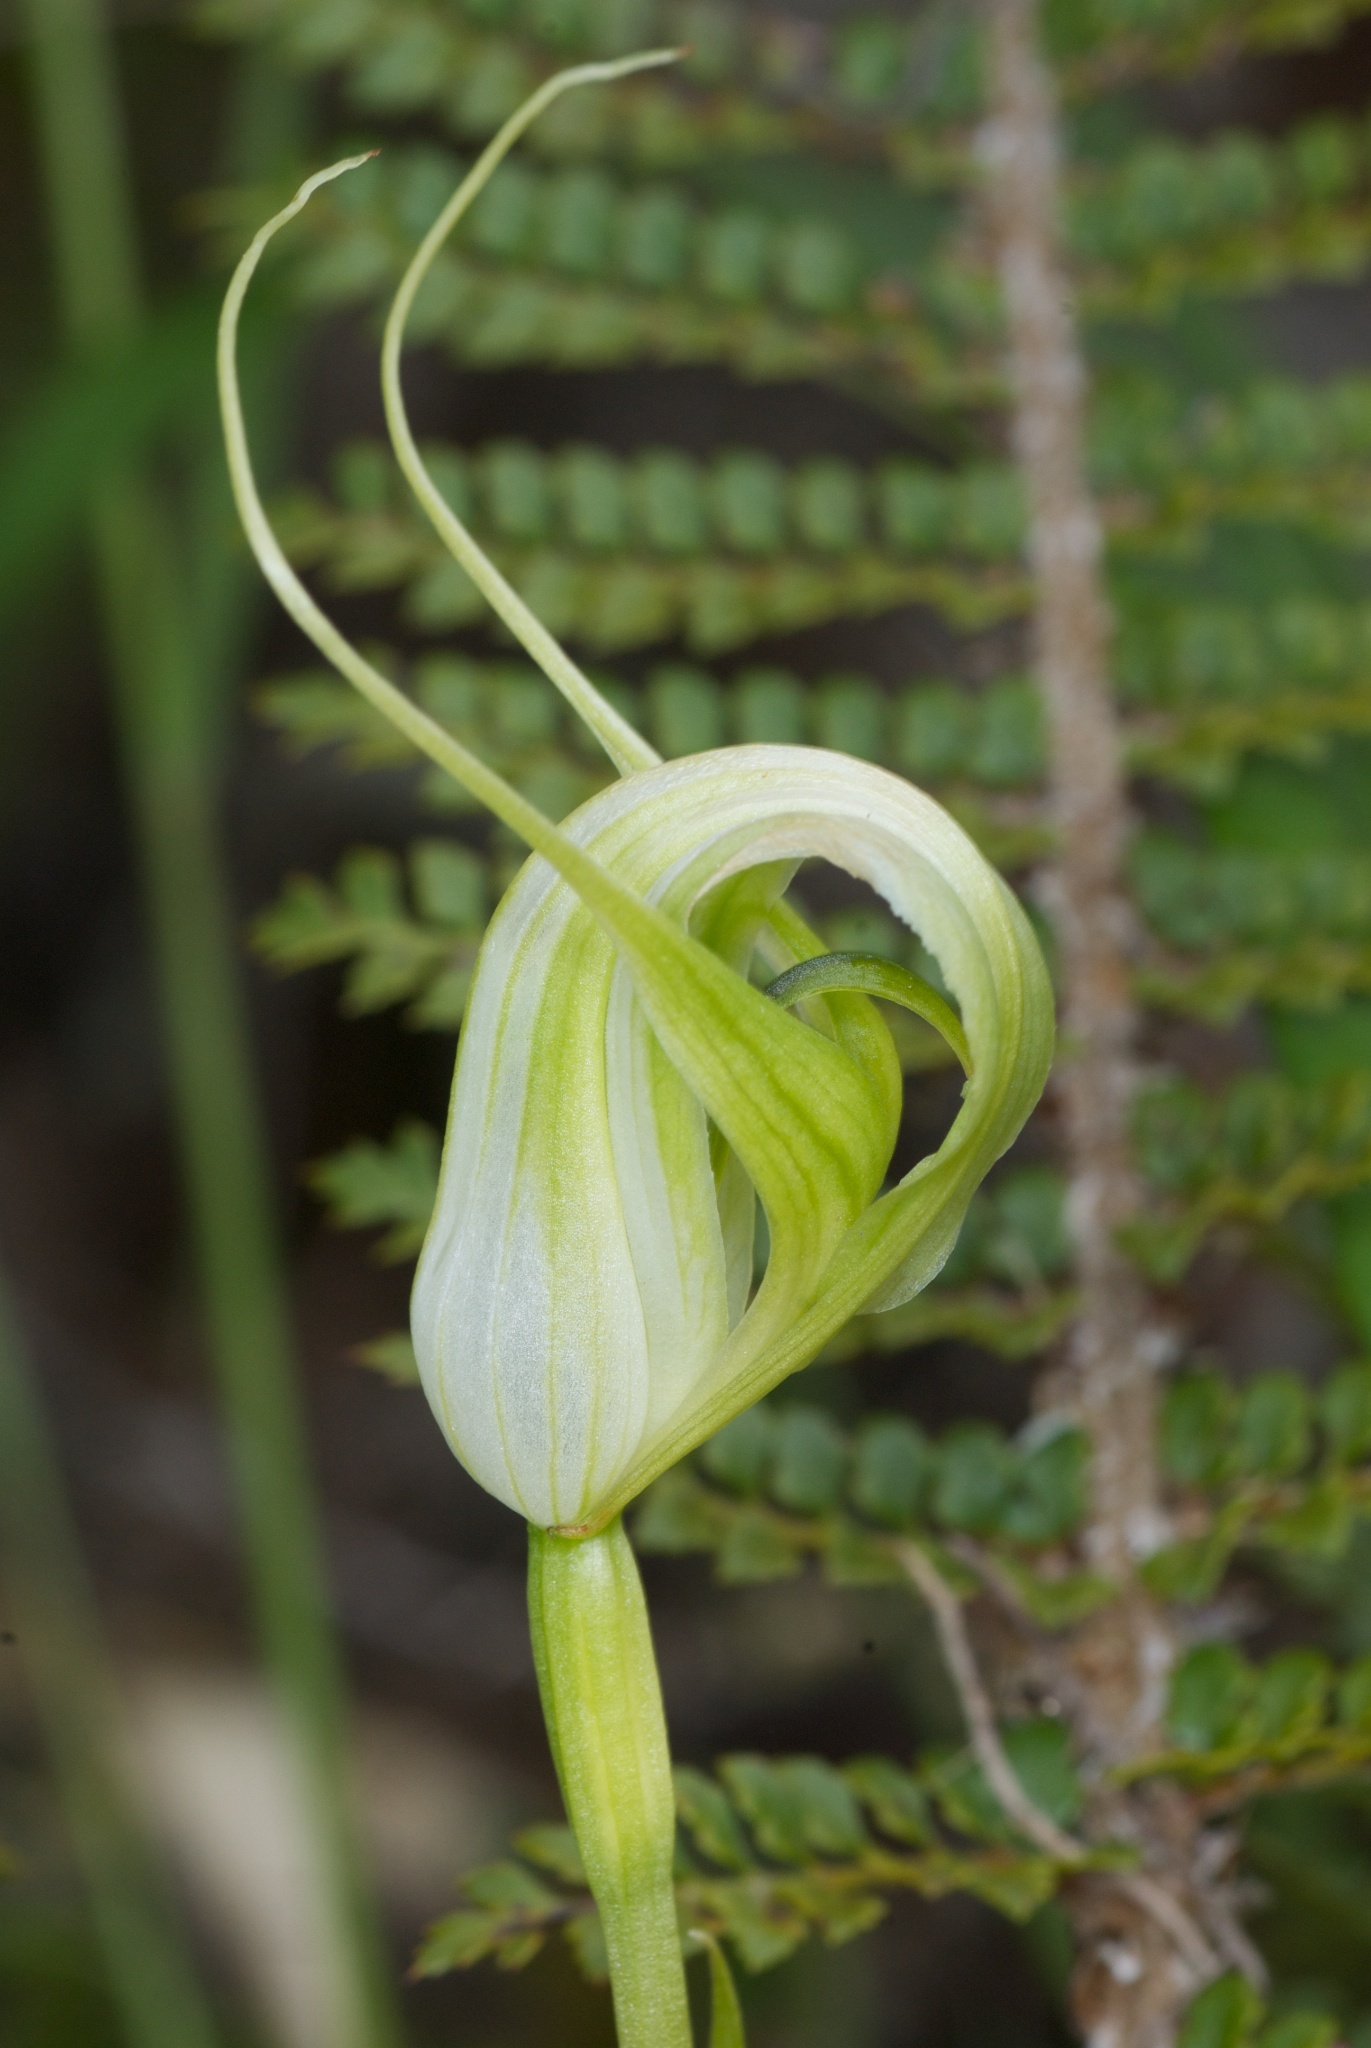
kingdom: Plantae
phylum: Tracheophyta
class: Liliopsida
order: Asparagales
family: Orchidaceae
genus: Pterostylis
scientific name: Pterostylis oliveri
